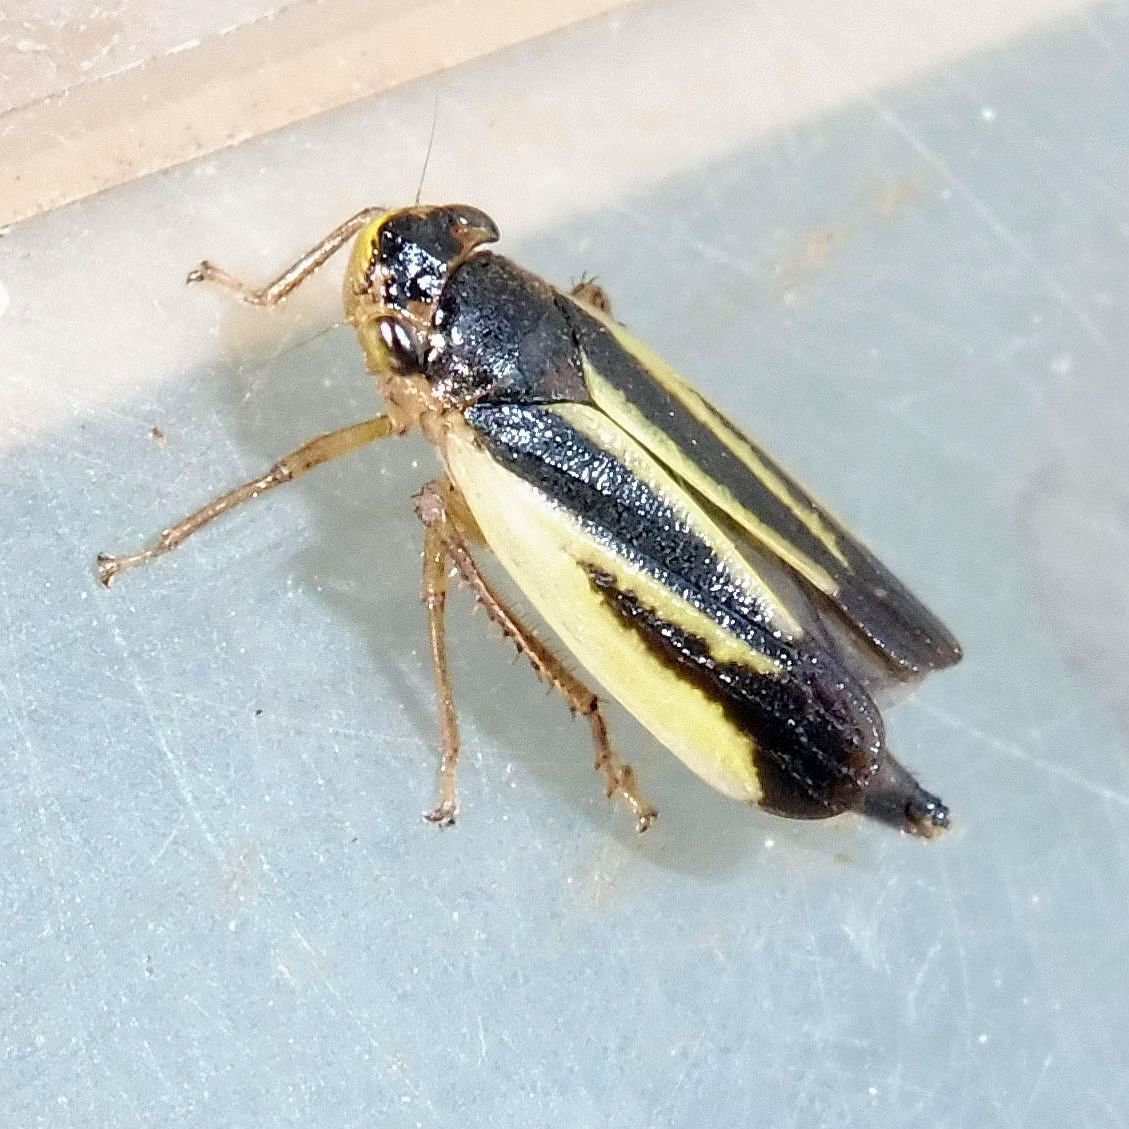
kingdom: Animalia
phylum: Arthropoda
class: Insecta
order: Hemiptera
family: Cicadellidae
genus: Evacanthus
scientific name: Evacanthus interruptus
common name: Leafhopper
